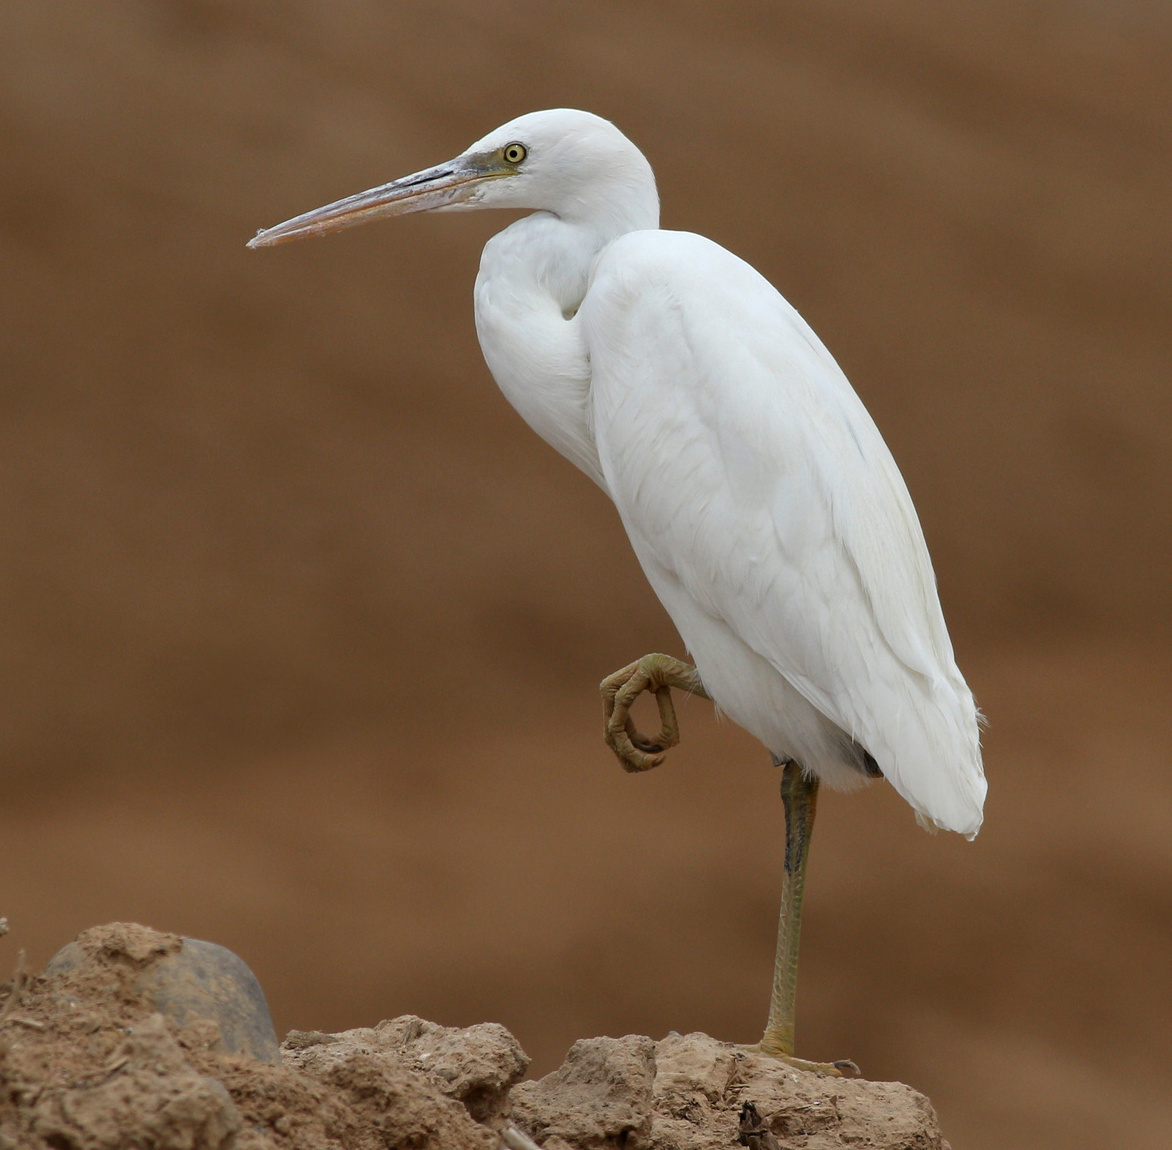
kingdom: Animalia
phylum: Chordata
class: Aves
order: Pelecaniformes
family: Ardeidae
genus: Egretta
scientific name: Egretta gularis
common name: Western reef-heron
